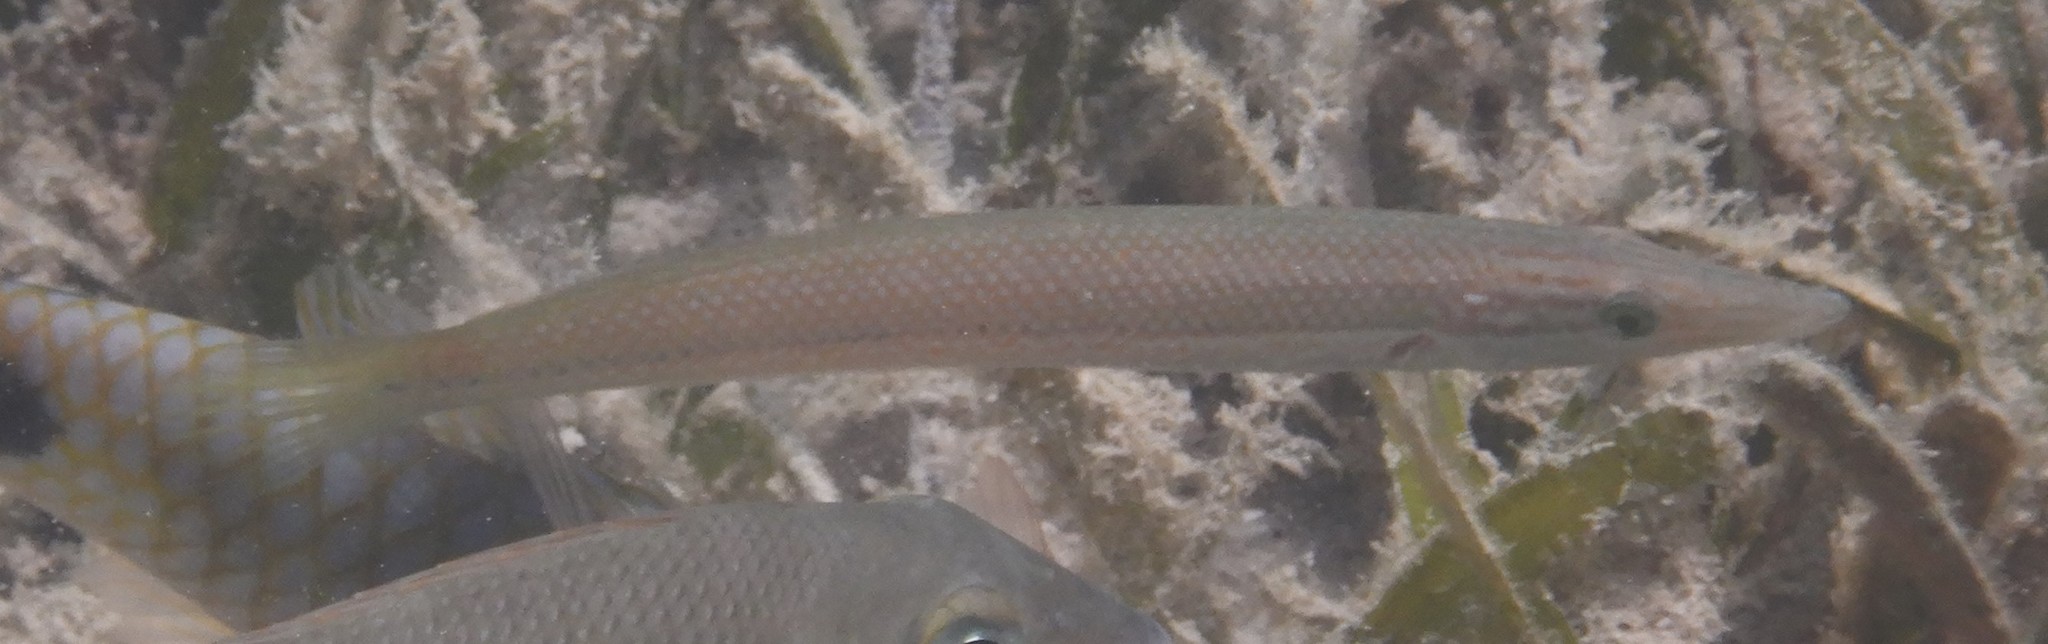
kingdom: Animalia
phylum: Chordata
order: Perciformes
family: Labridae
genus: Cheilio
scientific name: Cheilio inermis
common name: Cigar wrasse
